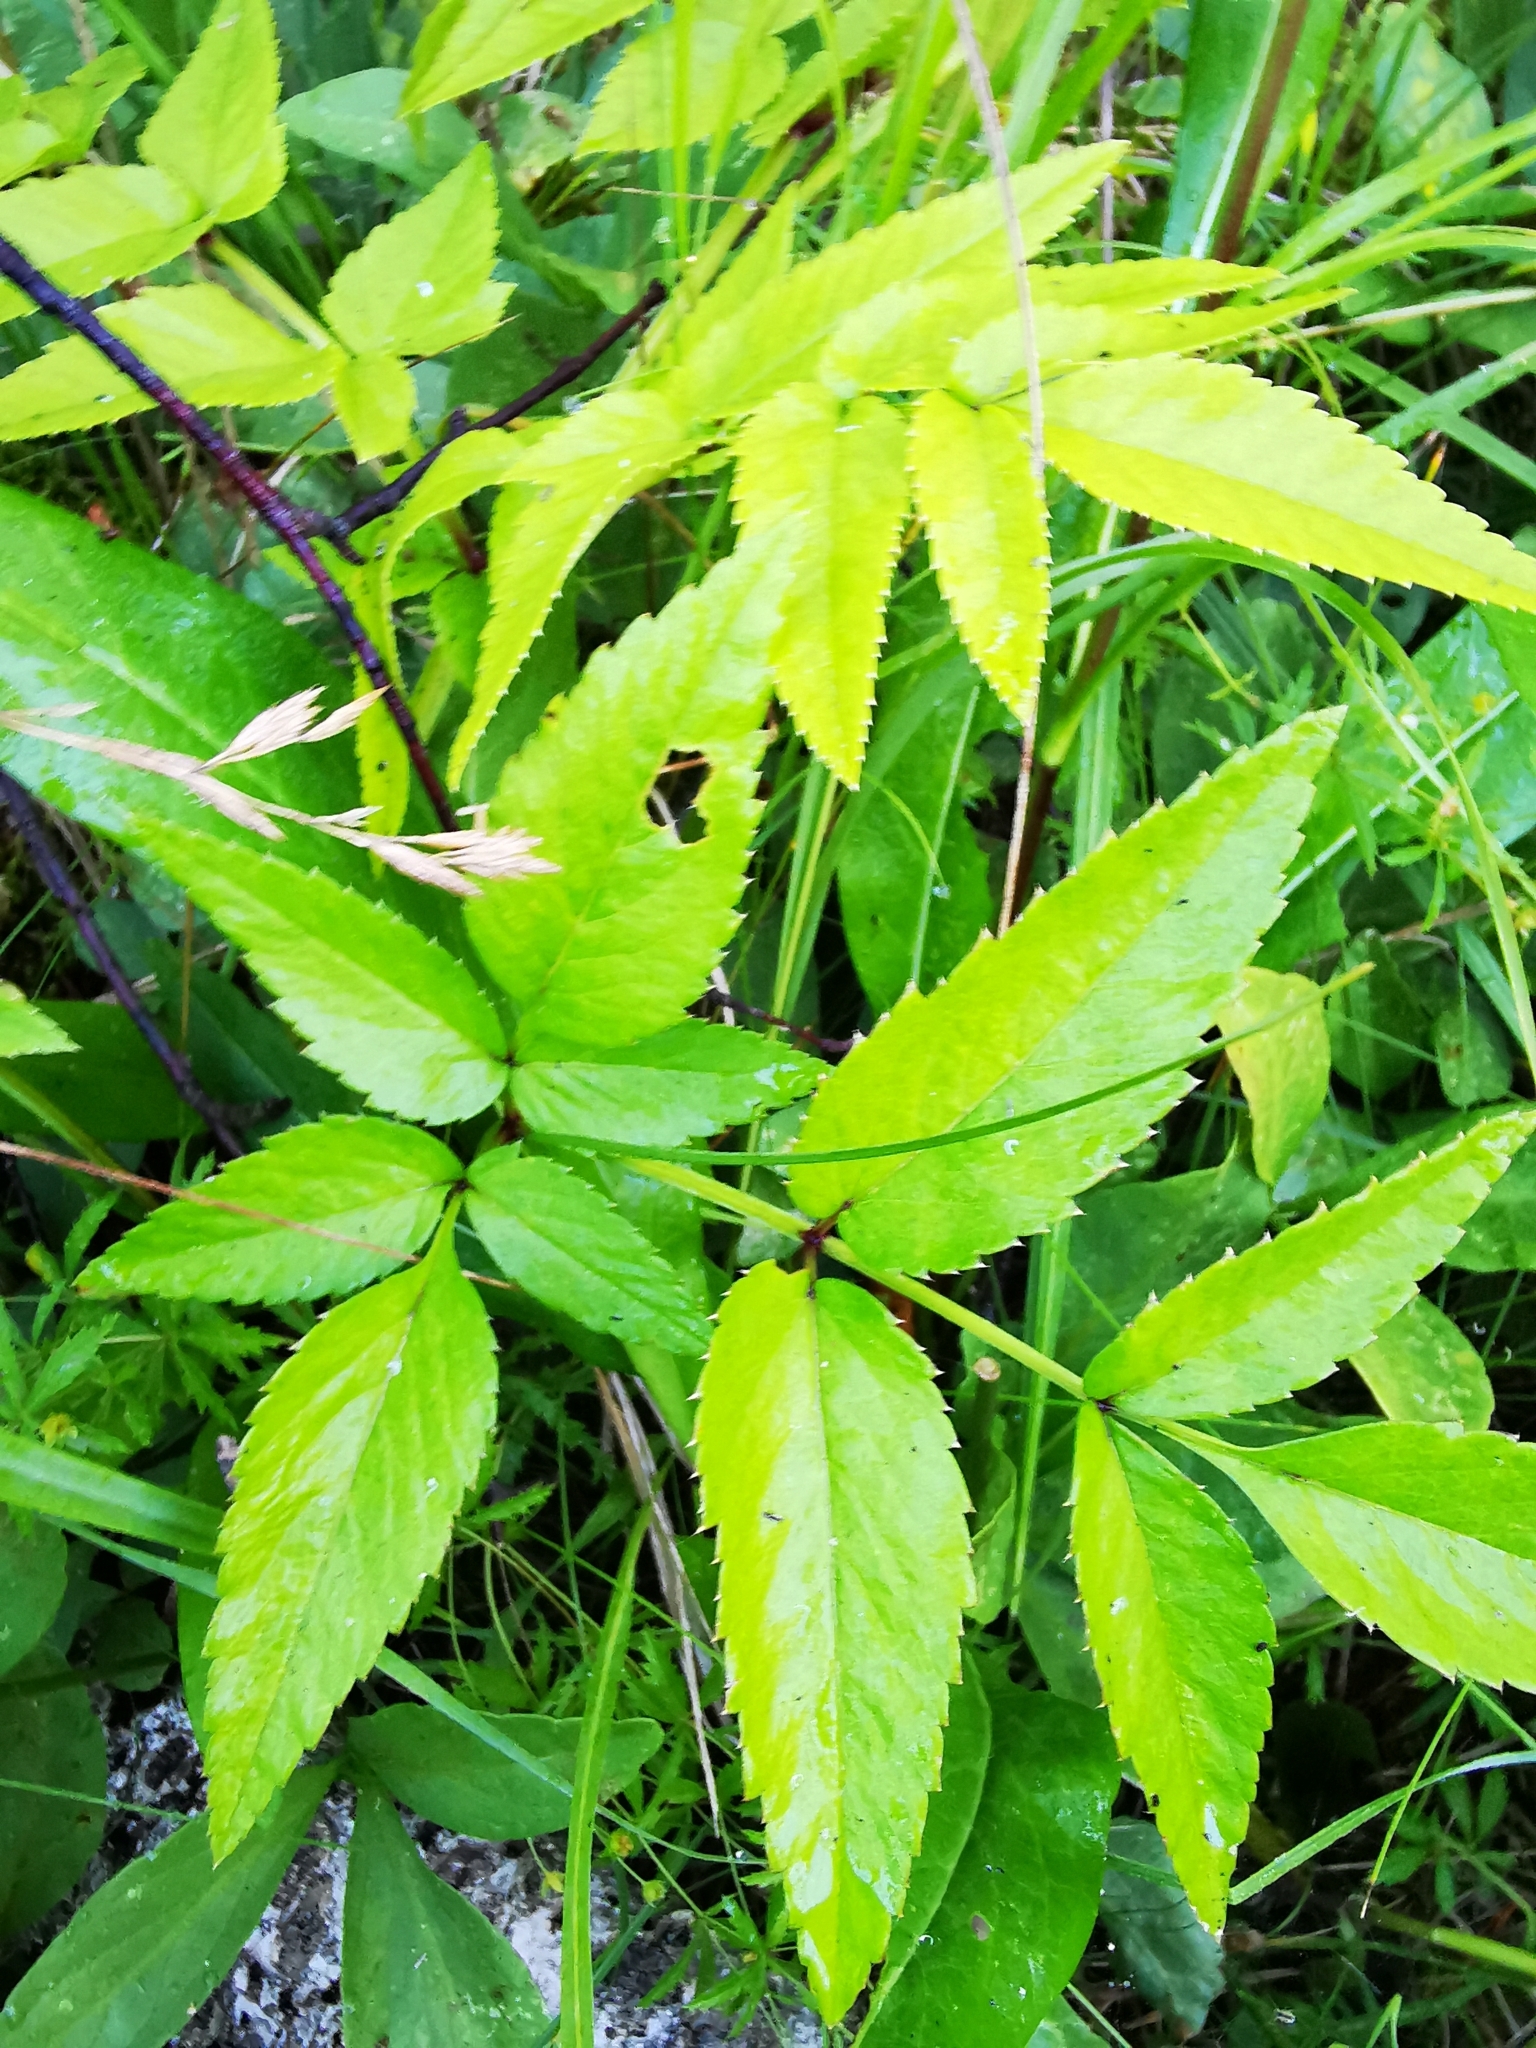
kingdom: Plantae
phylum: Tracheophyta
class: Magnoliopsida
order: Apiales
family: Apiaceae
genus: Angelica
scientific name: Angelica sylvestris
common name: Wild angelica
